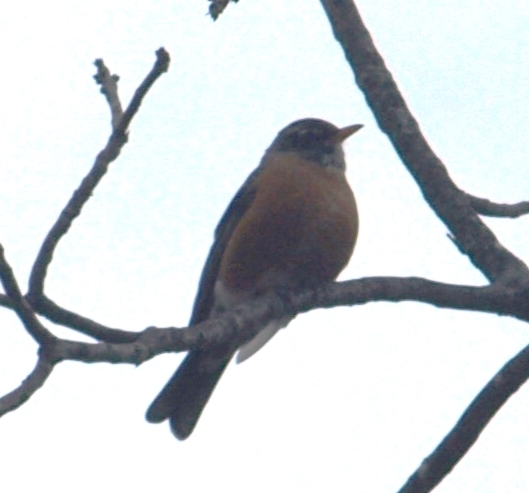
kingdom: Animalia
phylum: Chordata
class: Aves
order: Passeriformes
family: Turdidae
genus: Turdus
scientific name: Turdus migratorius
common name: American robin
